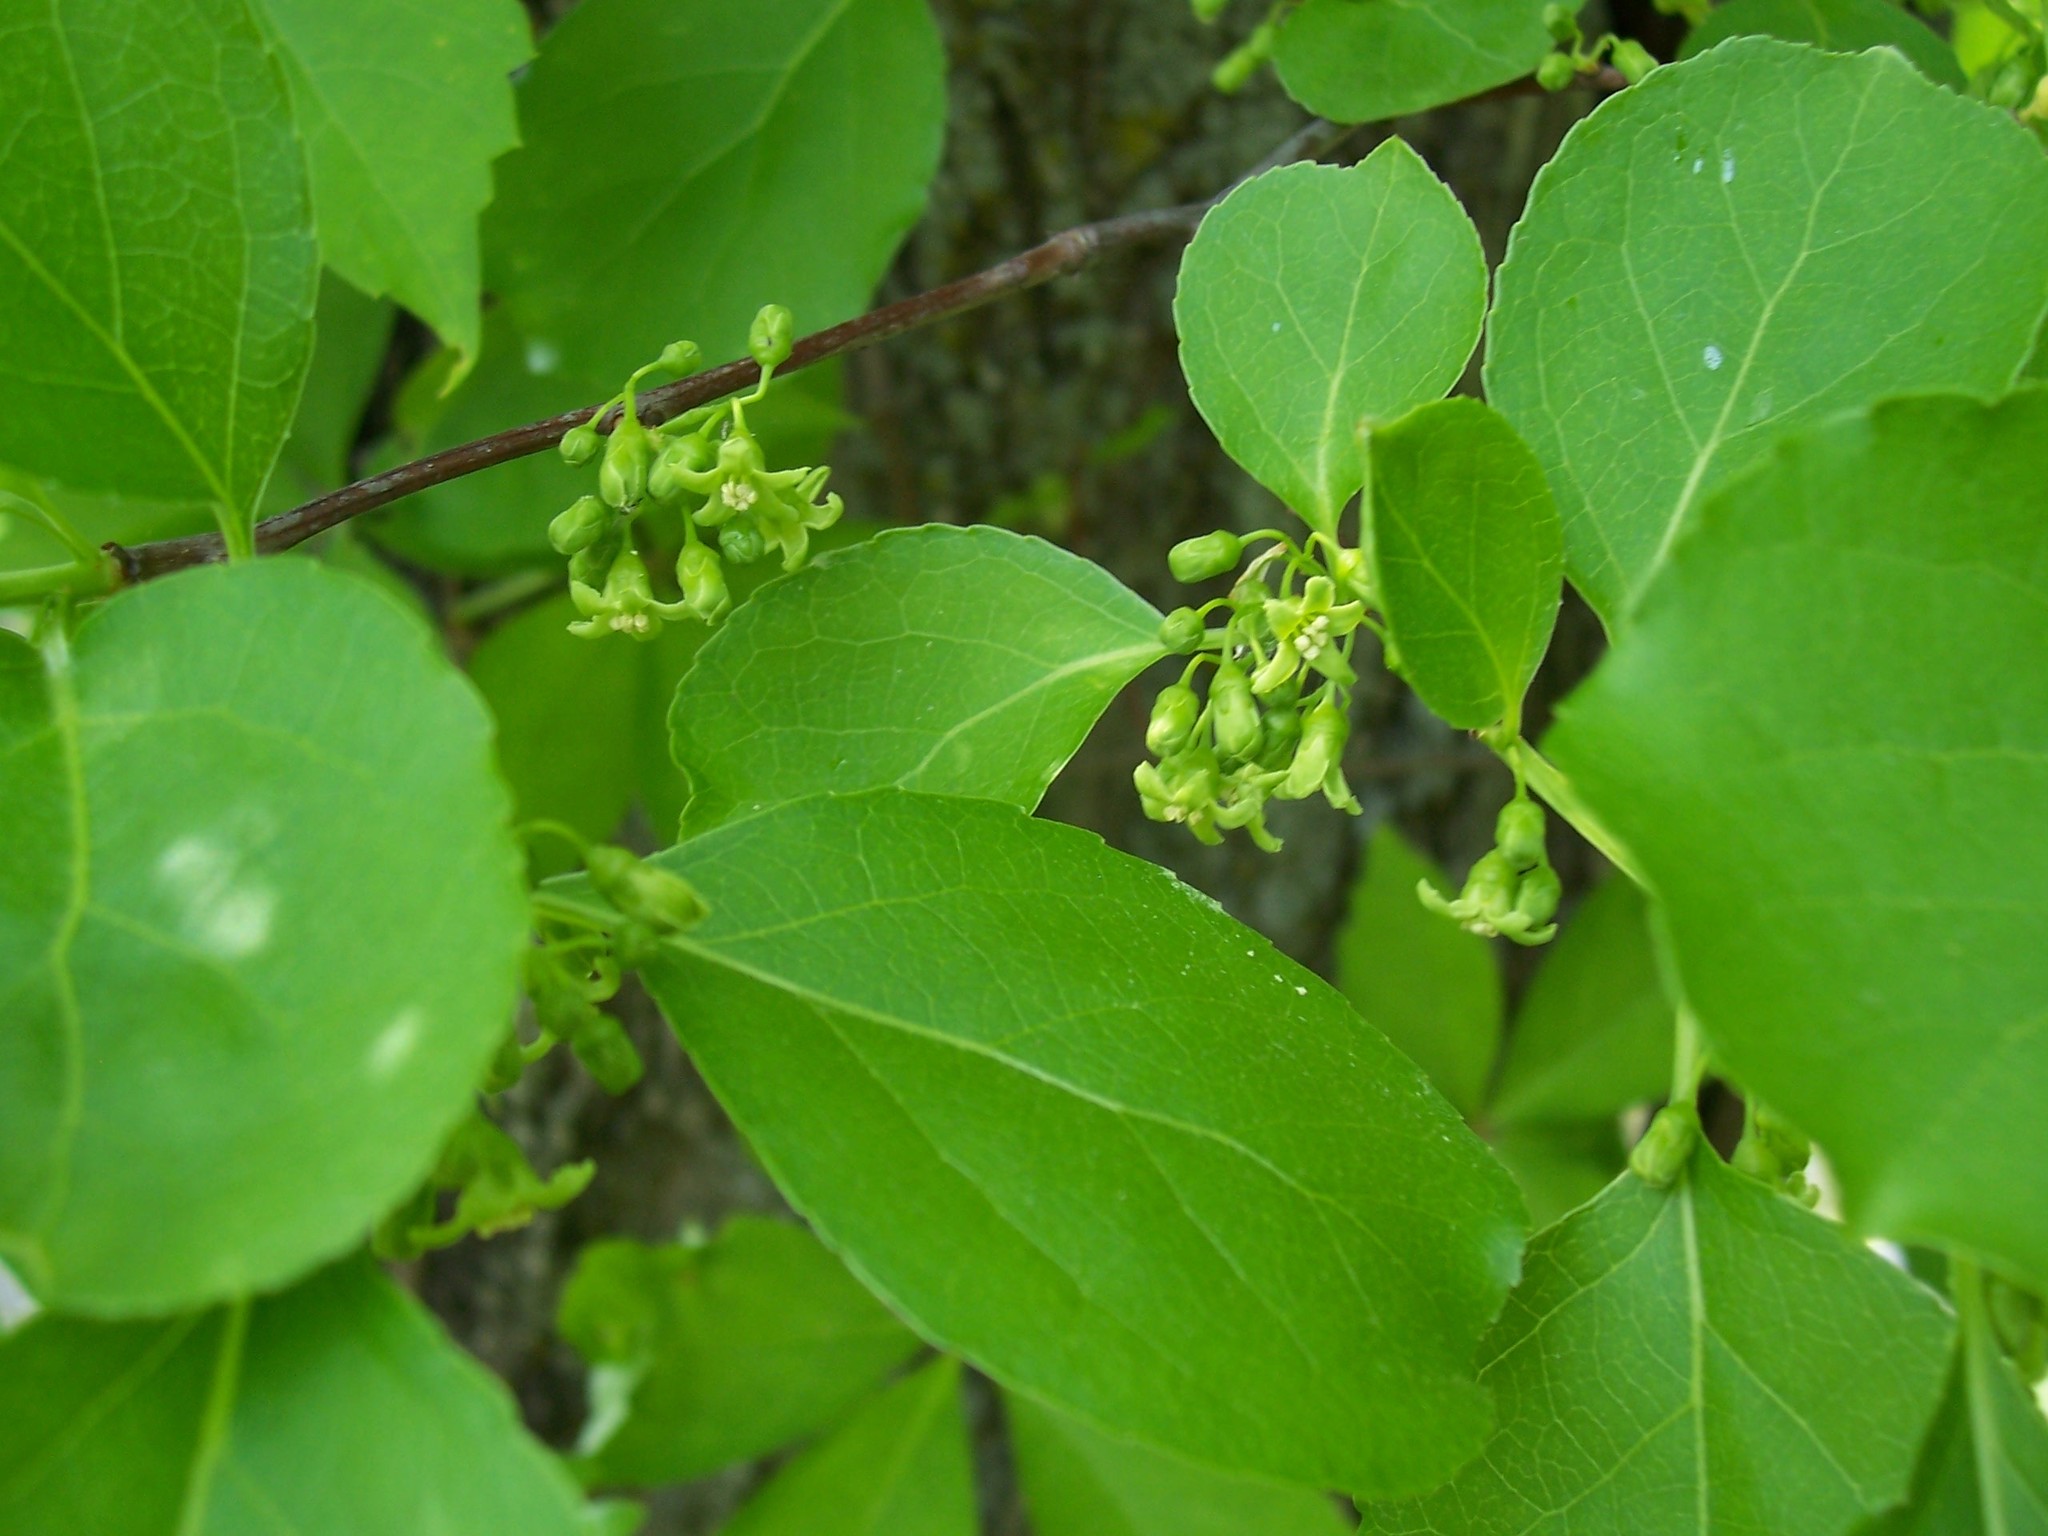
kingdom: Plantae
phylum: Tracheophyta
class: Magnoliopsida
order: Celastrales
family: Celastraceae
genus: Celastrus
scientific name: Celastrus orbiculatus
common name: Oriental bittersweet
